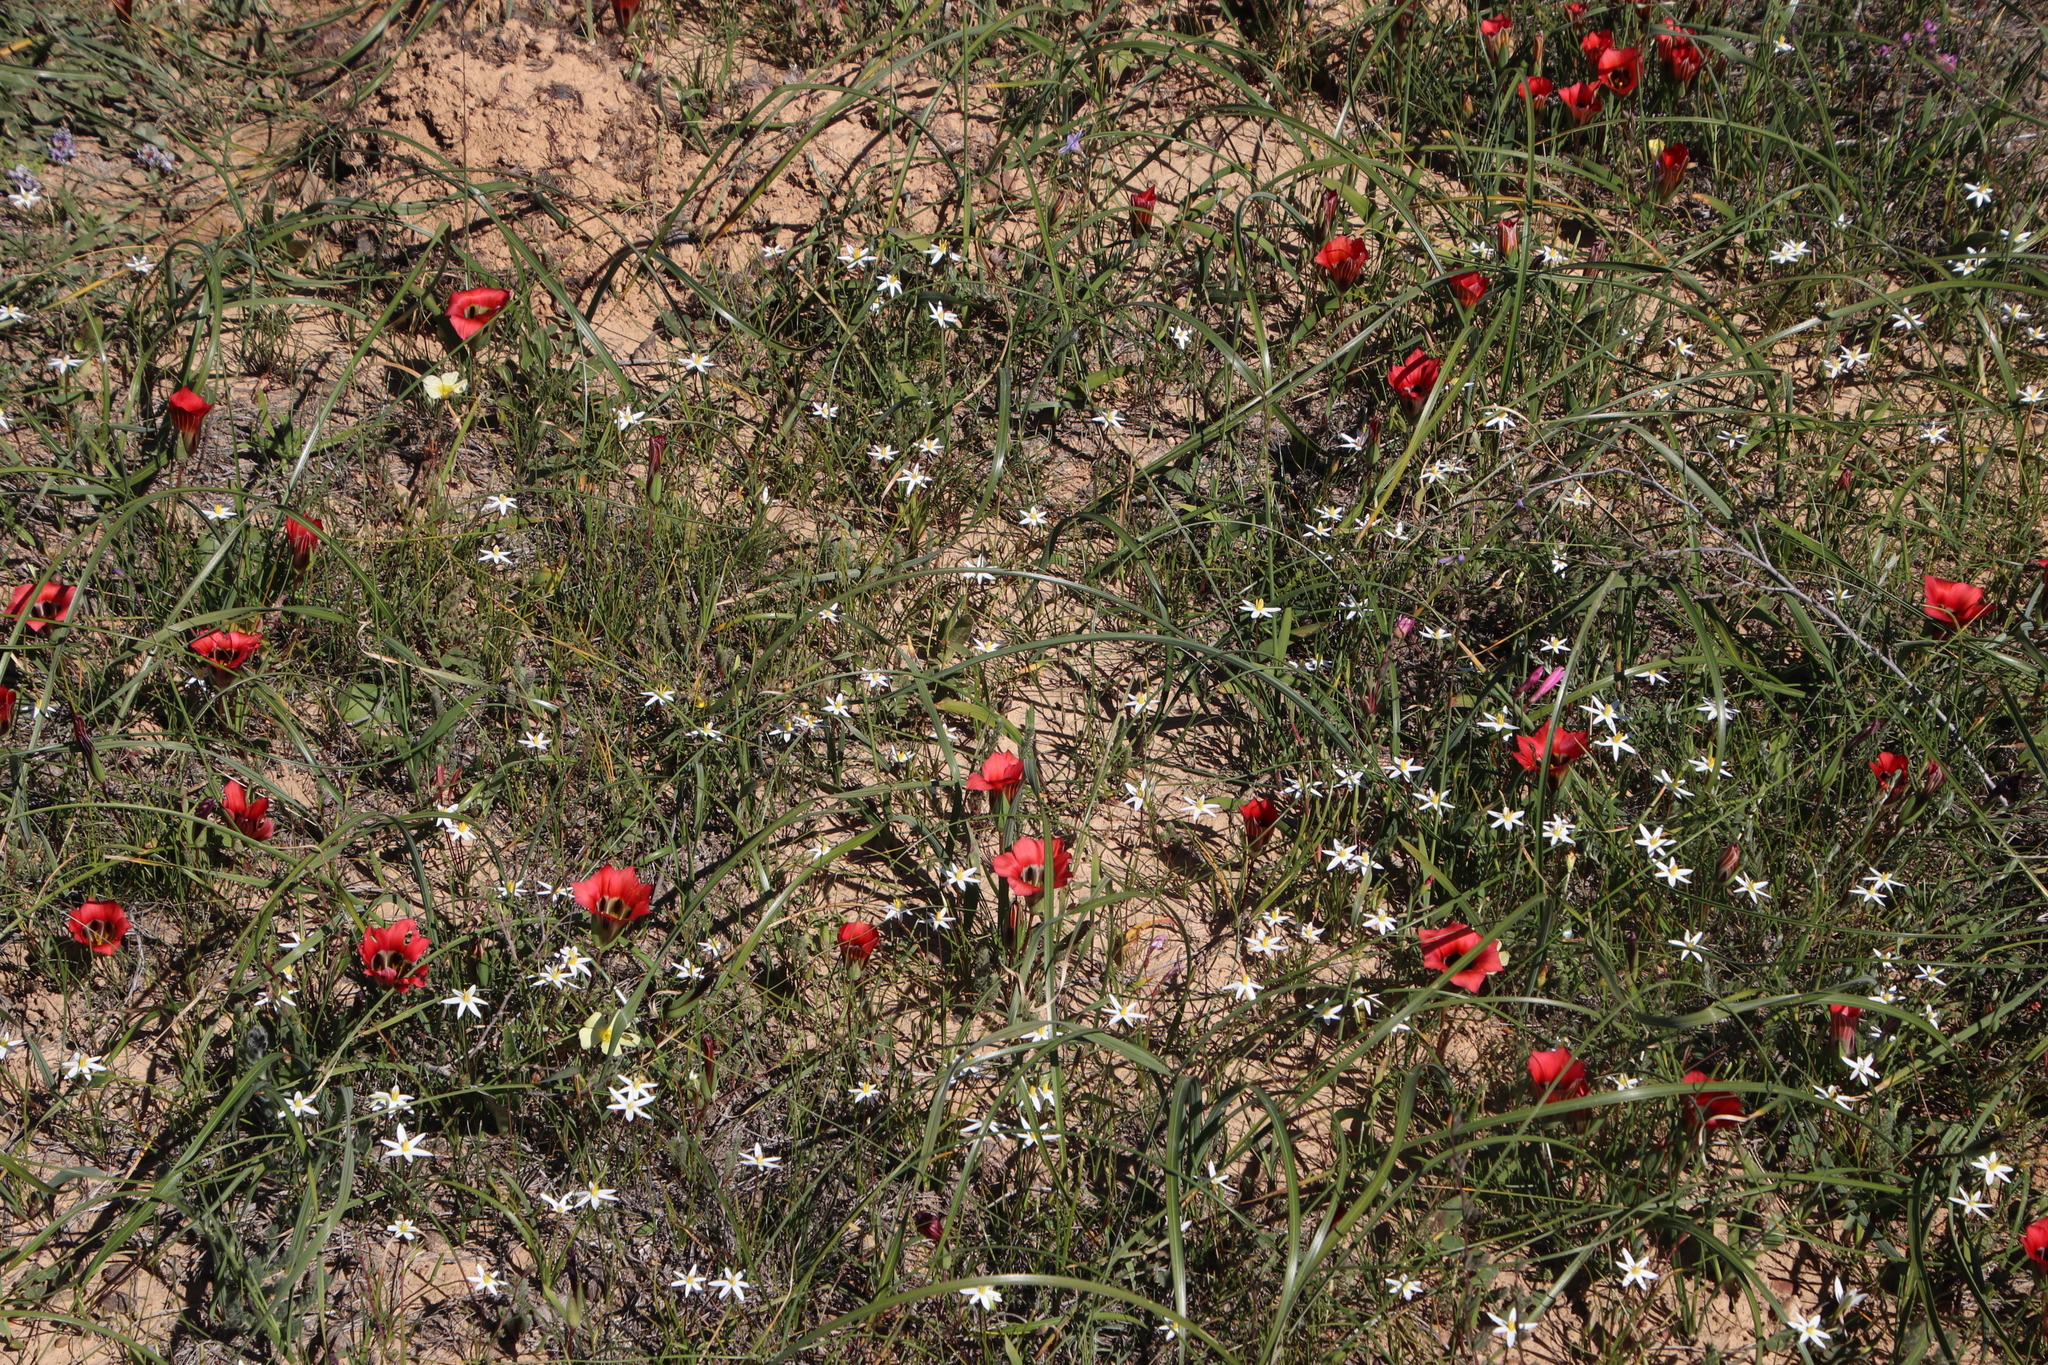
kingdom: Plantae
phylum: Tracheophyta
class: Liliopsida
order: Asparagales
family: Hypoxidaceae
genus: Pauridia
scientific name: Pauridia serrata
